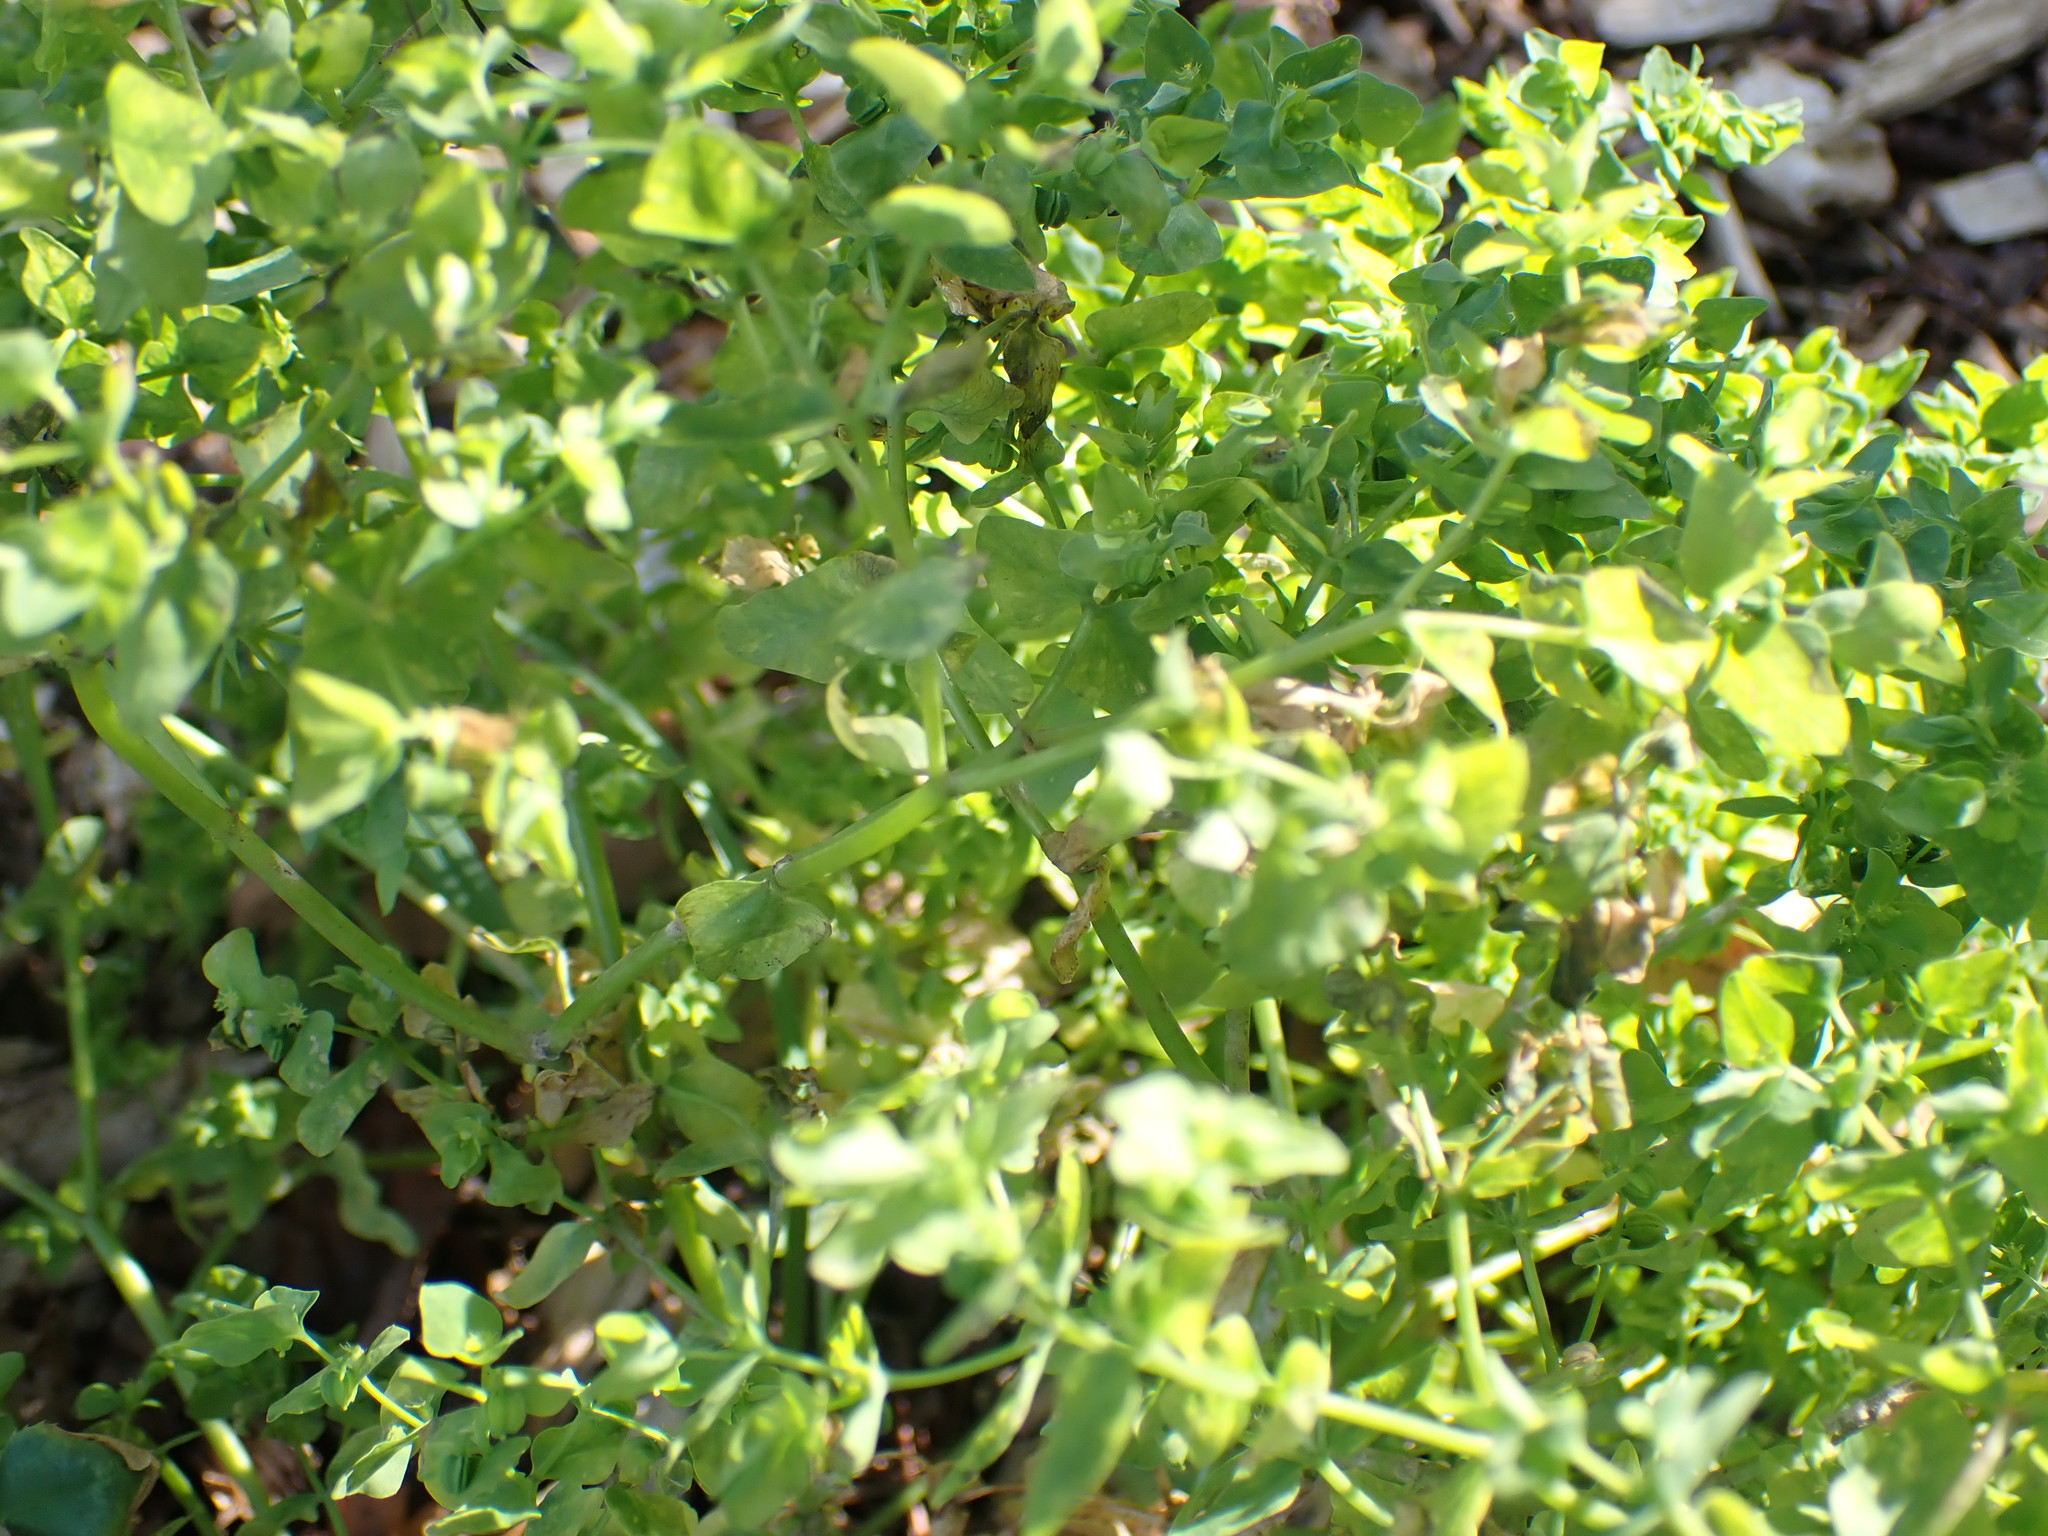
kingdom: Plantae
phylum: Tracheophyta
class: Magnoliopsida
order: Malpighiales
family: Euphorbiaceae
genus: Euphorbia
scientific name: Euphorbia peplus
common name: Petty spurge
